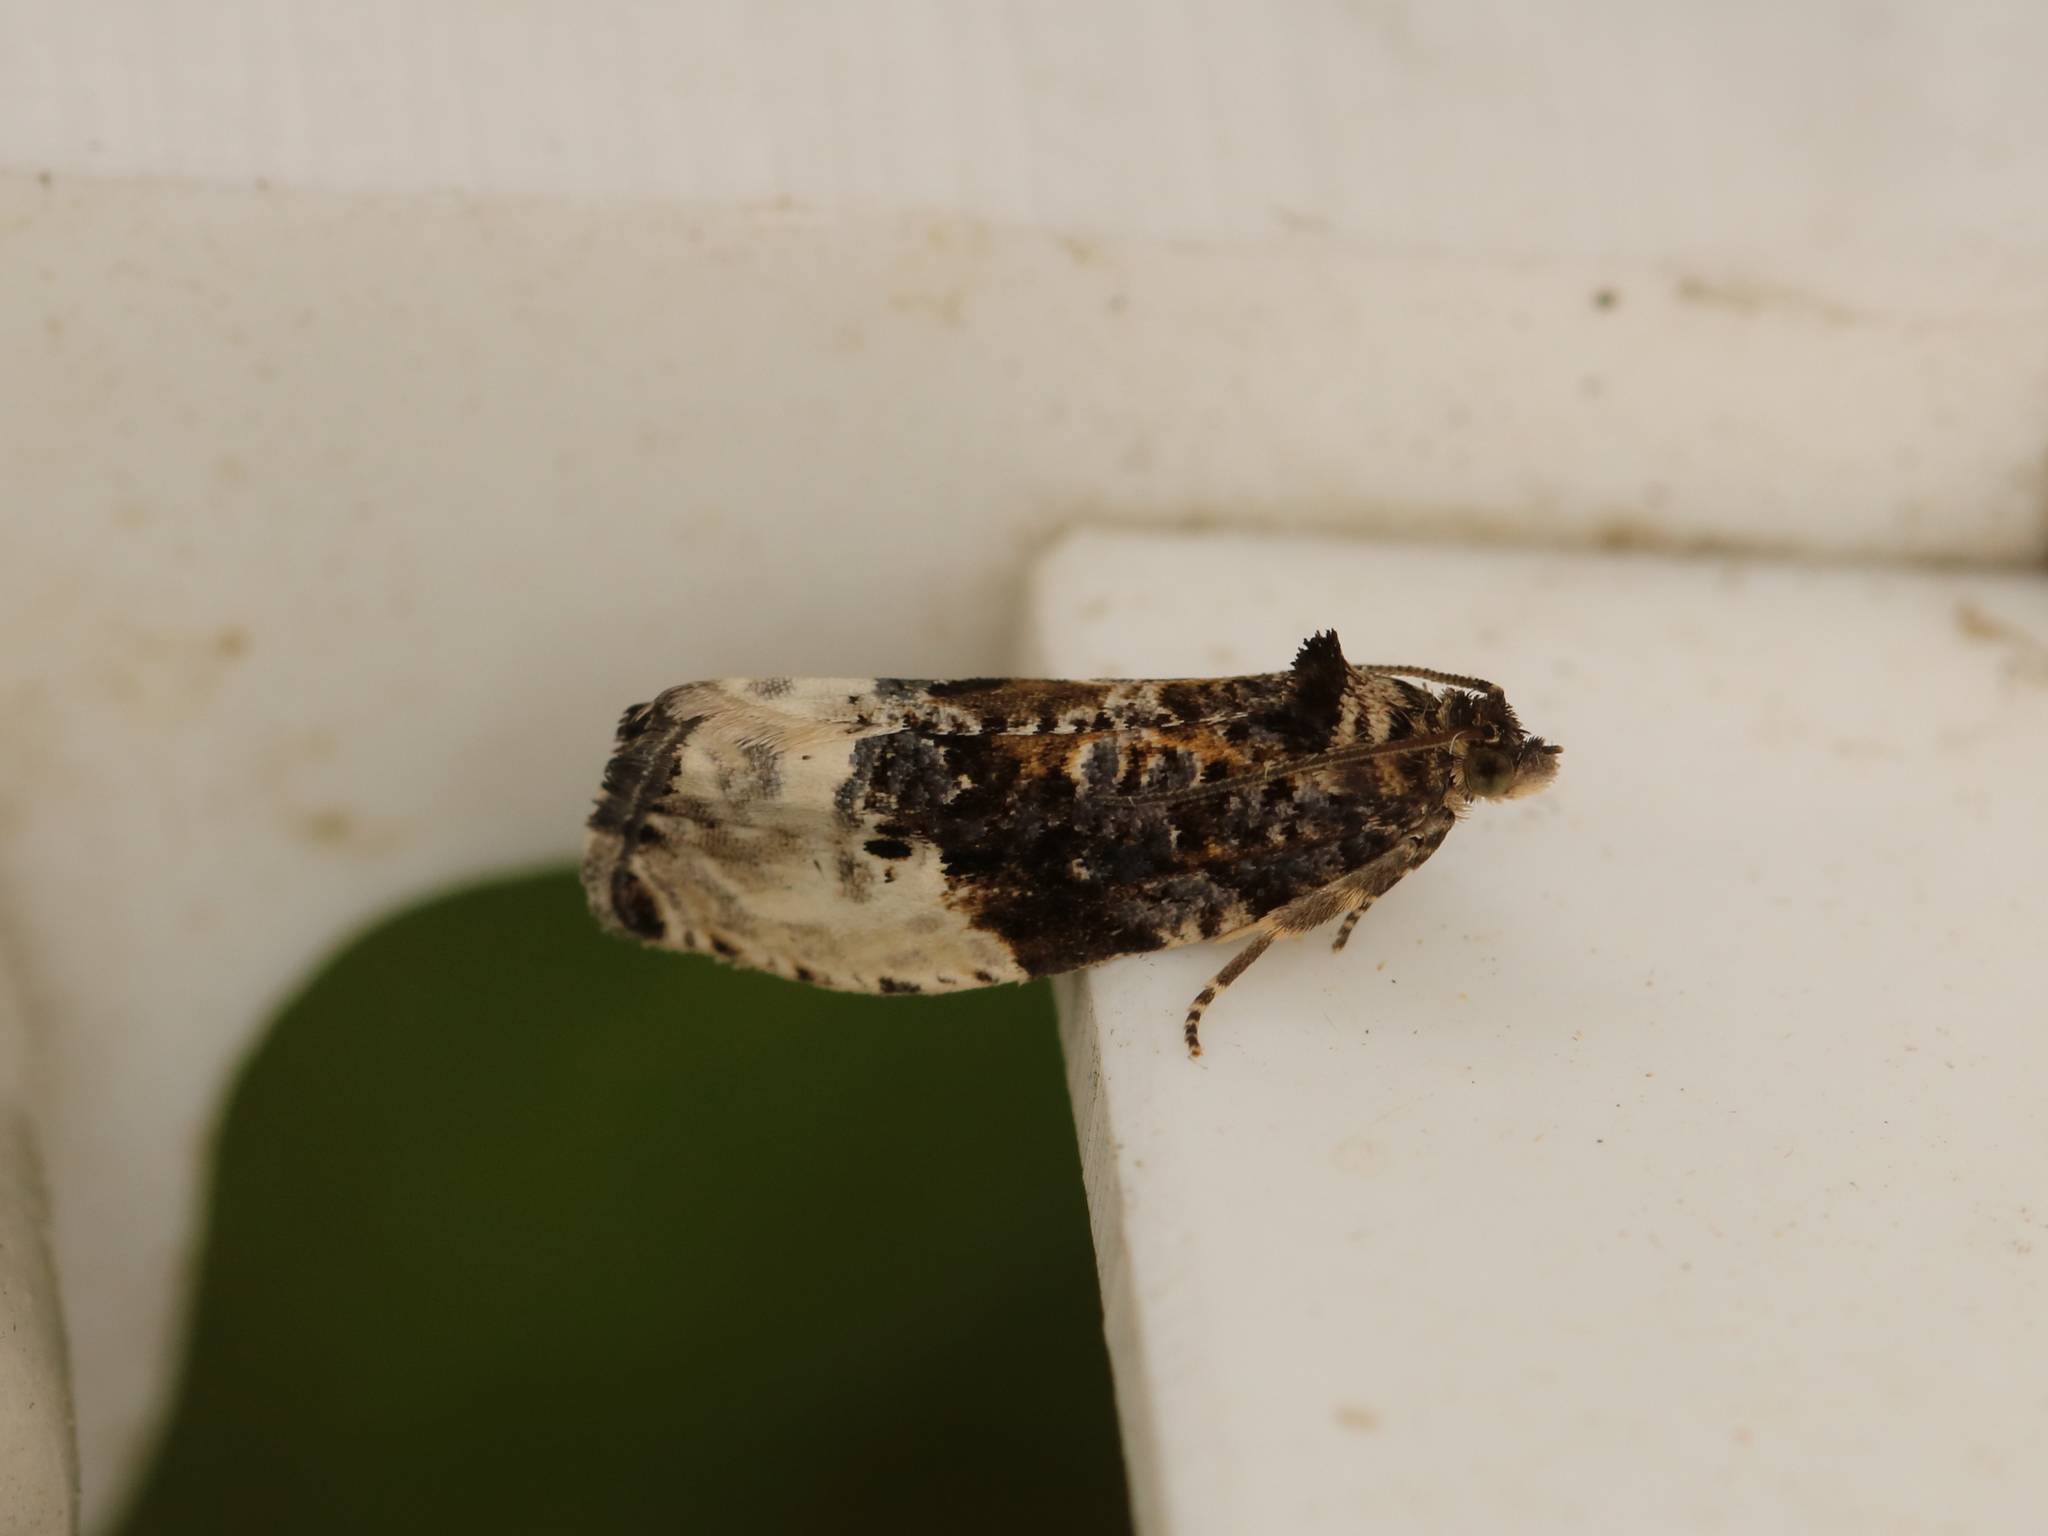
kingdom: Animalia
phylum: Arthropoda
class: Insecta
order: Lepidoptera
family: Tortricidae
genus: Hedya
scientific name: Hedya nubiferana
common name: Marbled orchard tortrix
